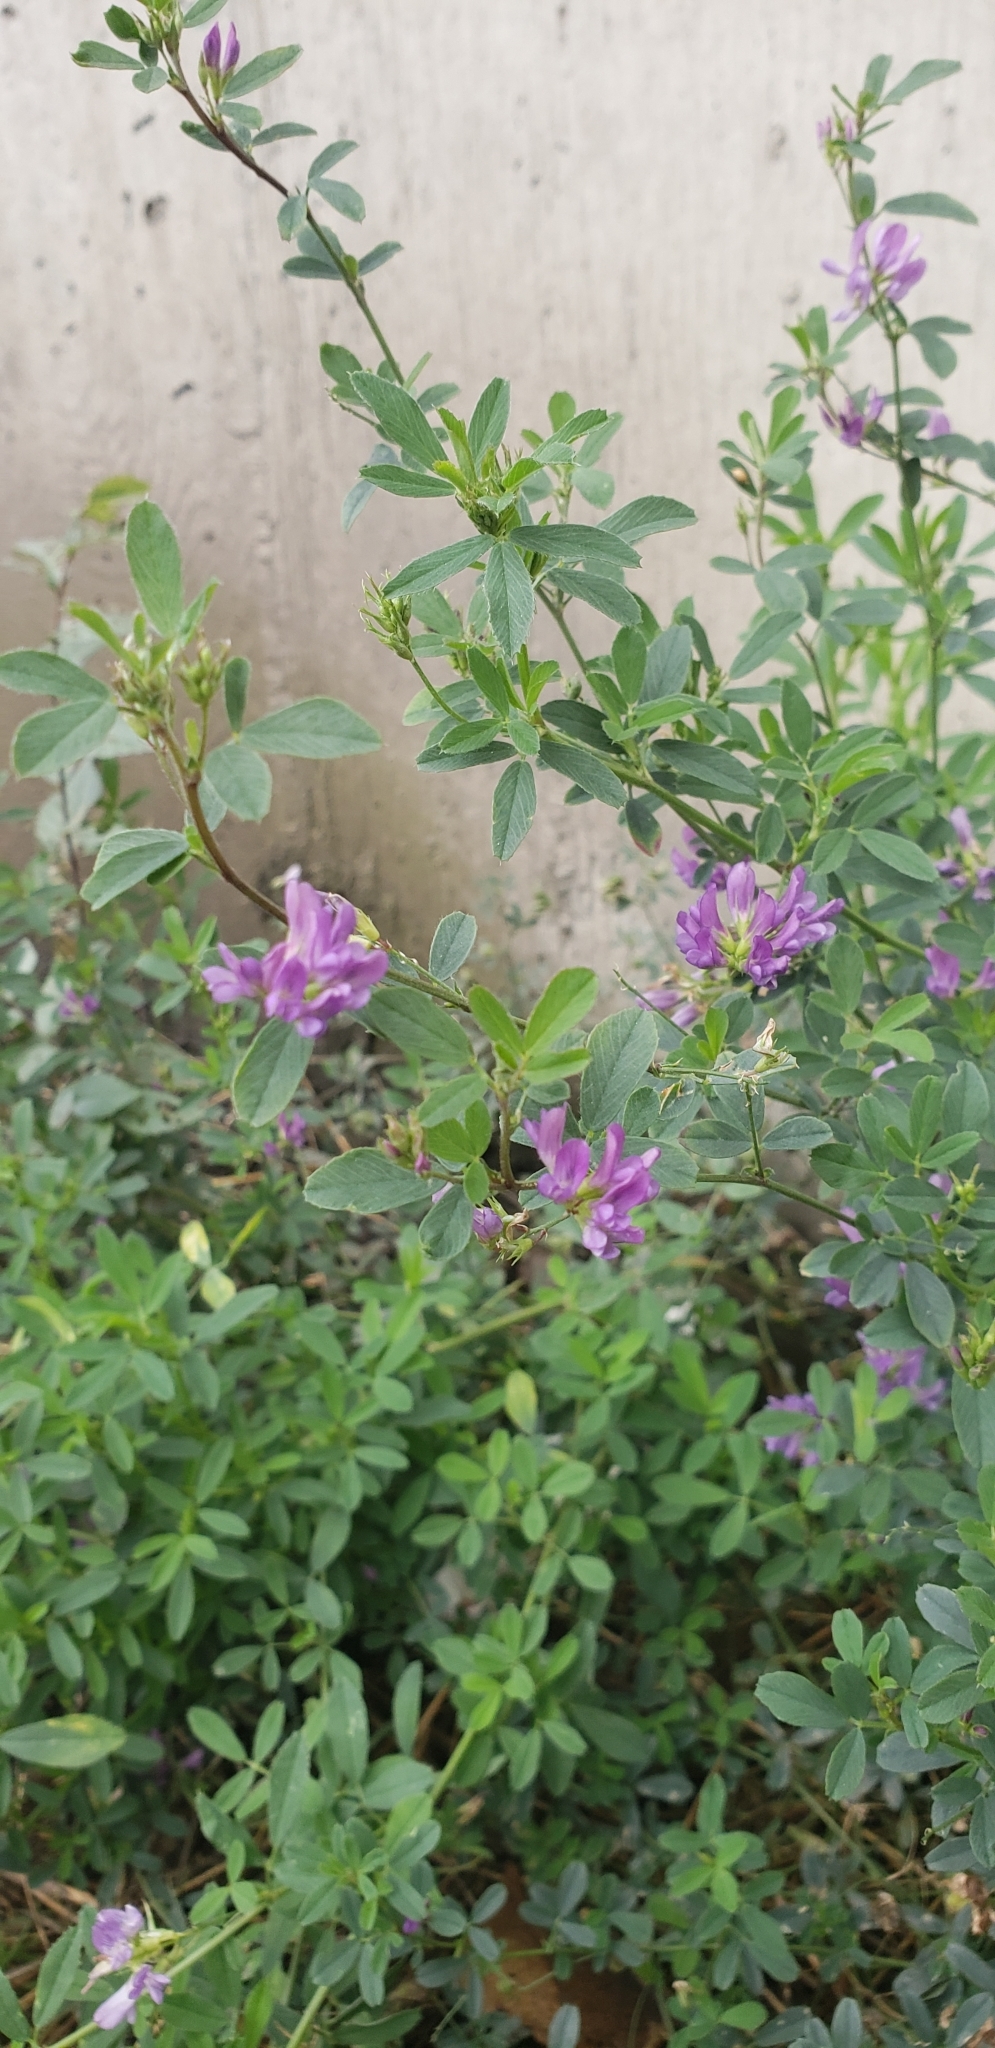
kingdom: Plantae
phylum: Tracheophyta
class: Magnoliopsida
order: Fabales
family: Fabaceae
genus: Medicago
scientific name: Medicago sativa
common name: Alfalfa
